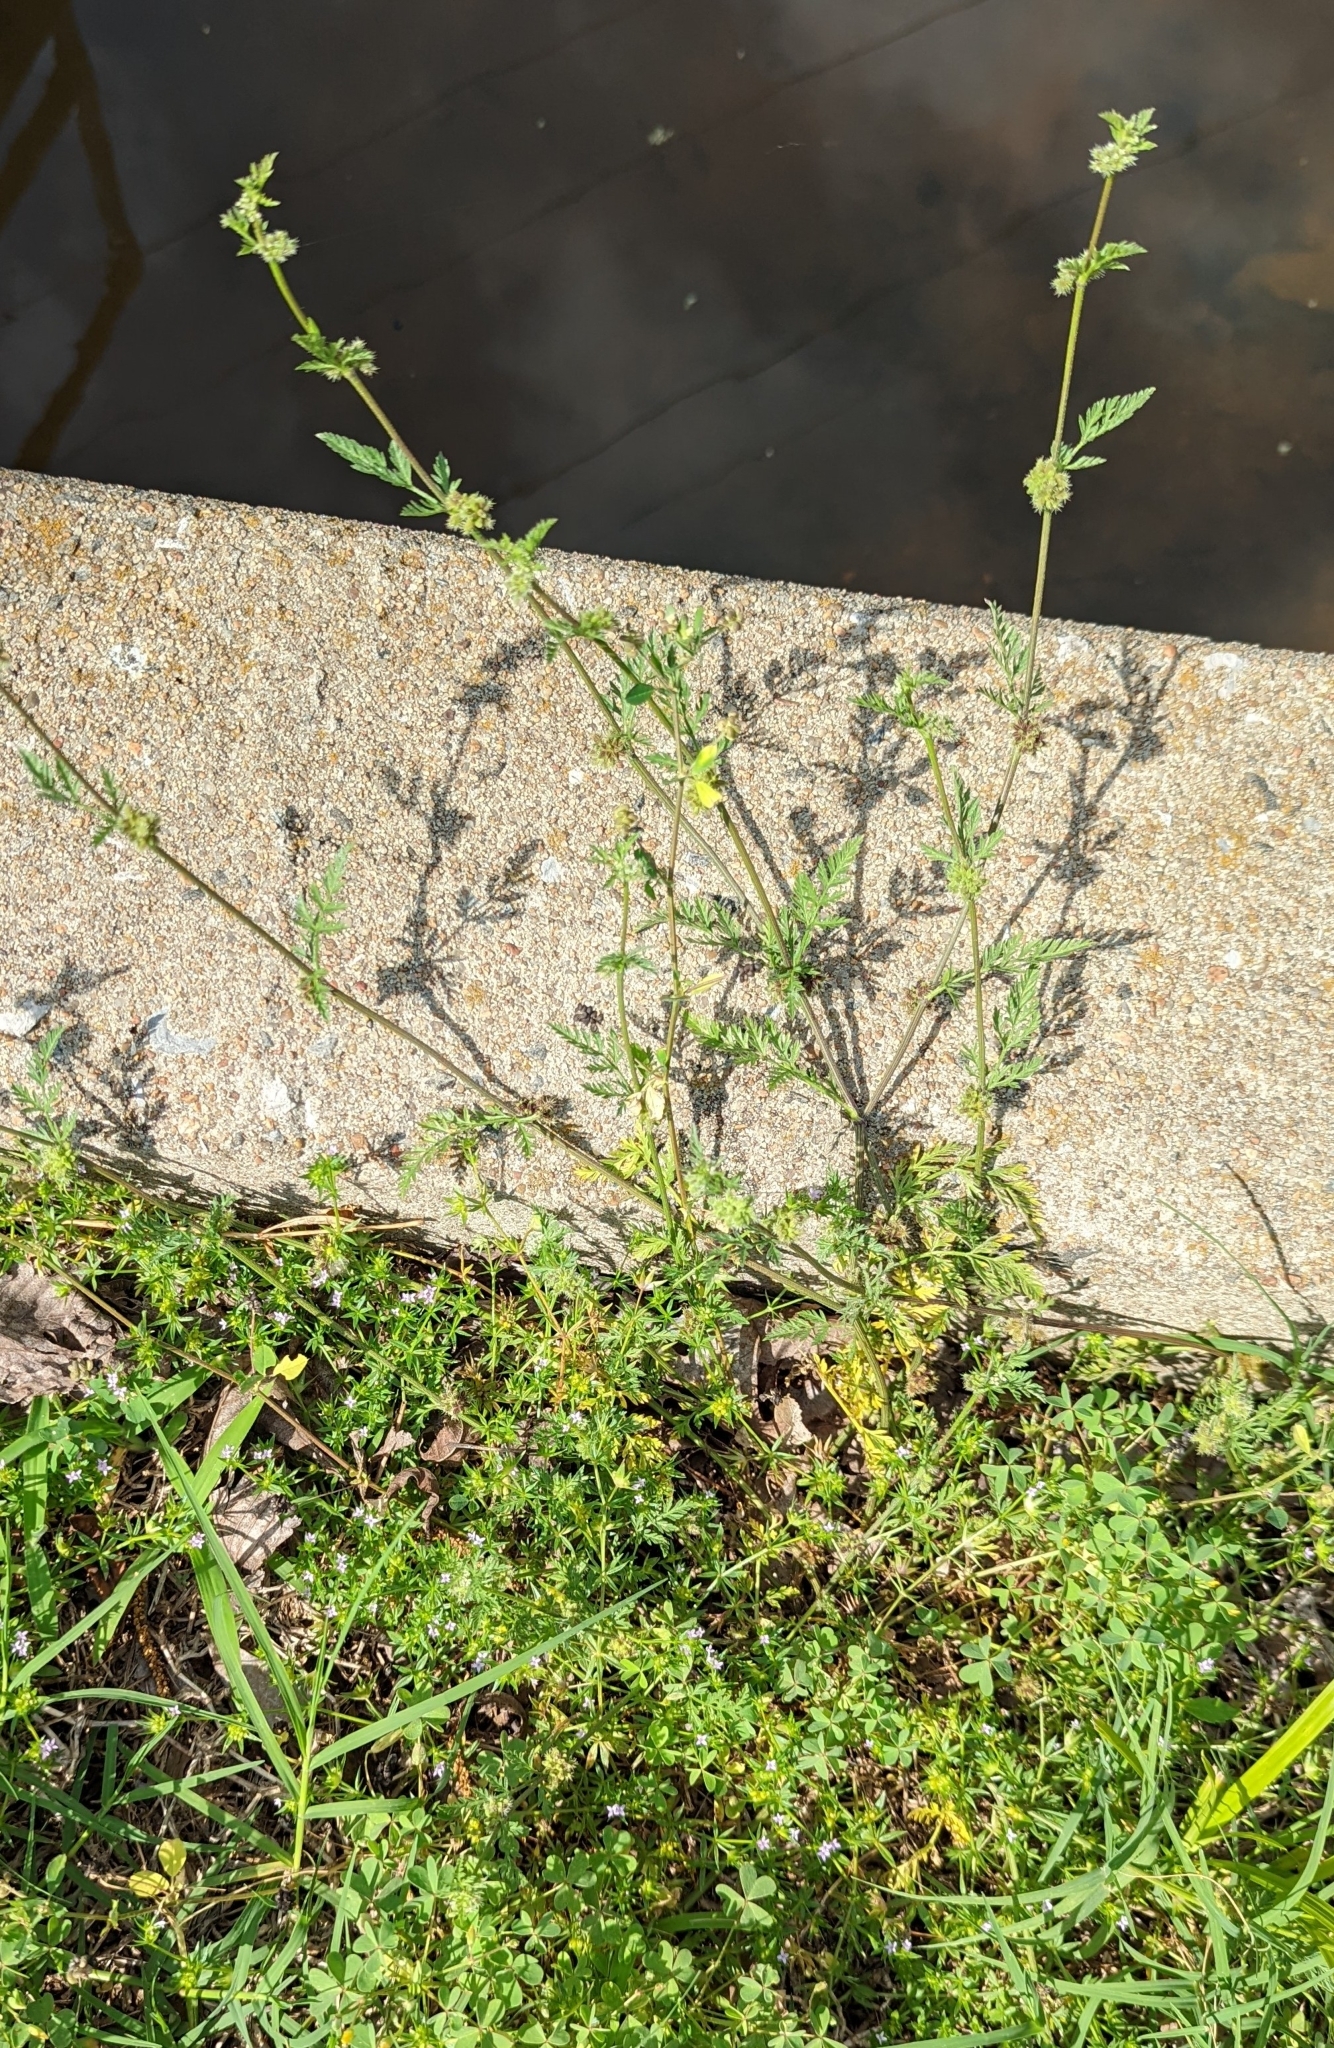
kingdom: Plantae
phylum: Tracheophyta
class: Magnoliopsida
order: Apiales
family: Apiaceae
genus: Torilis
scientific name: Torilis nodosa
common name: Knotted hedge-parsley
